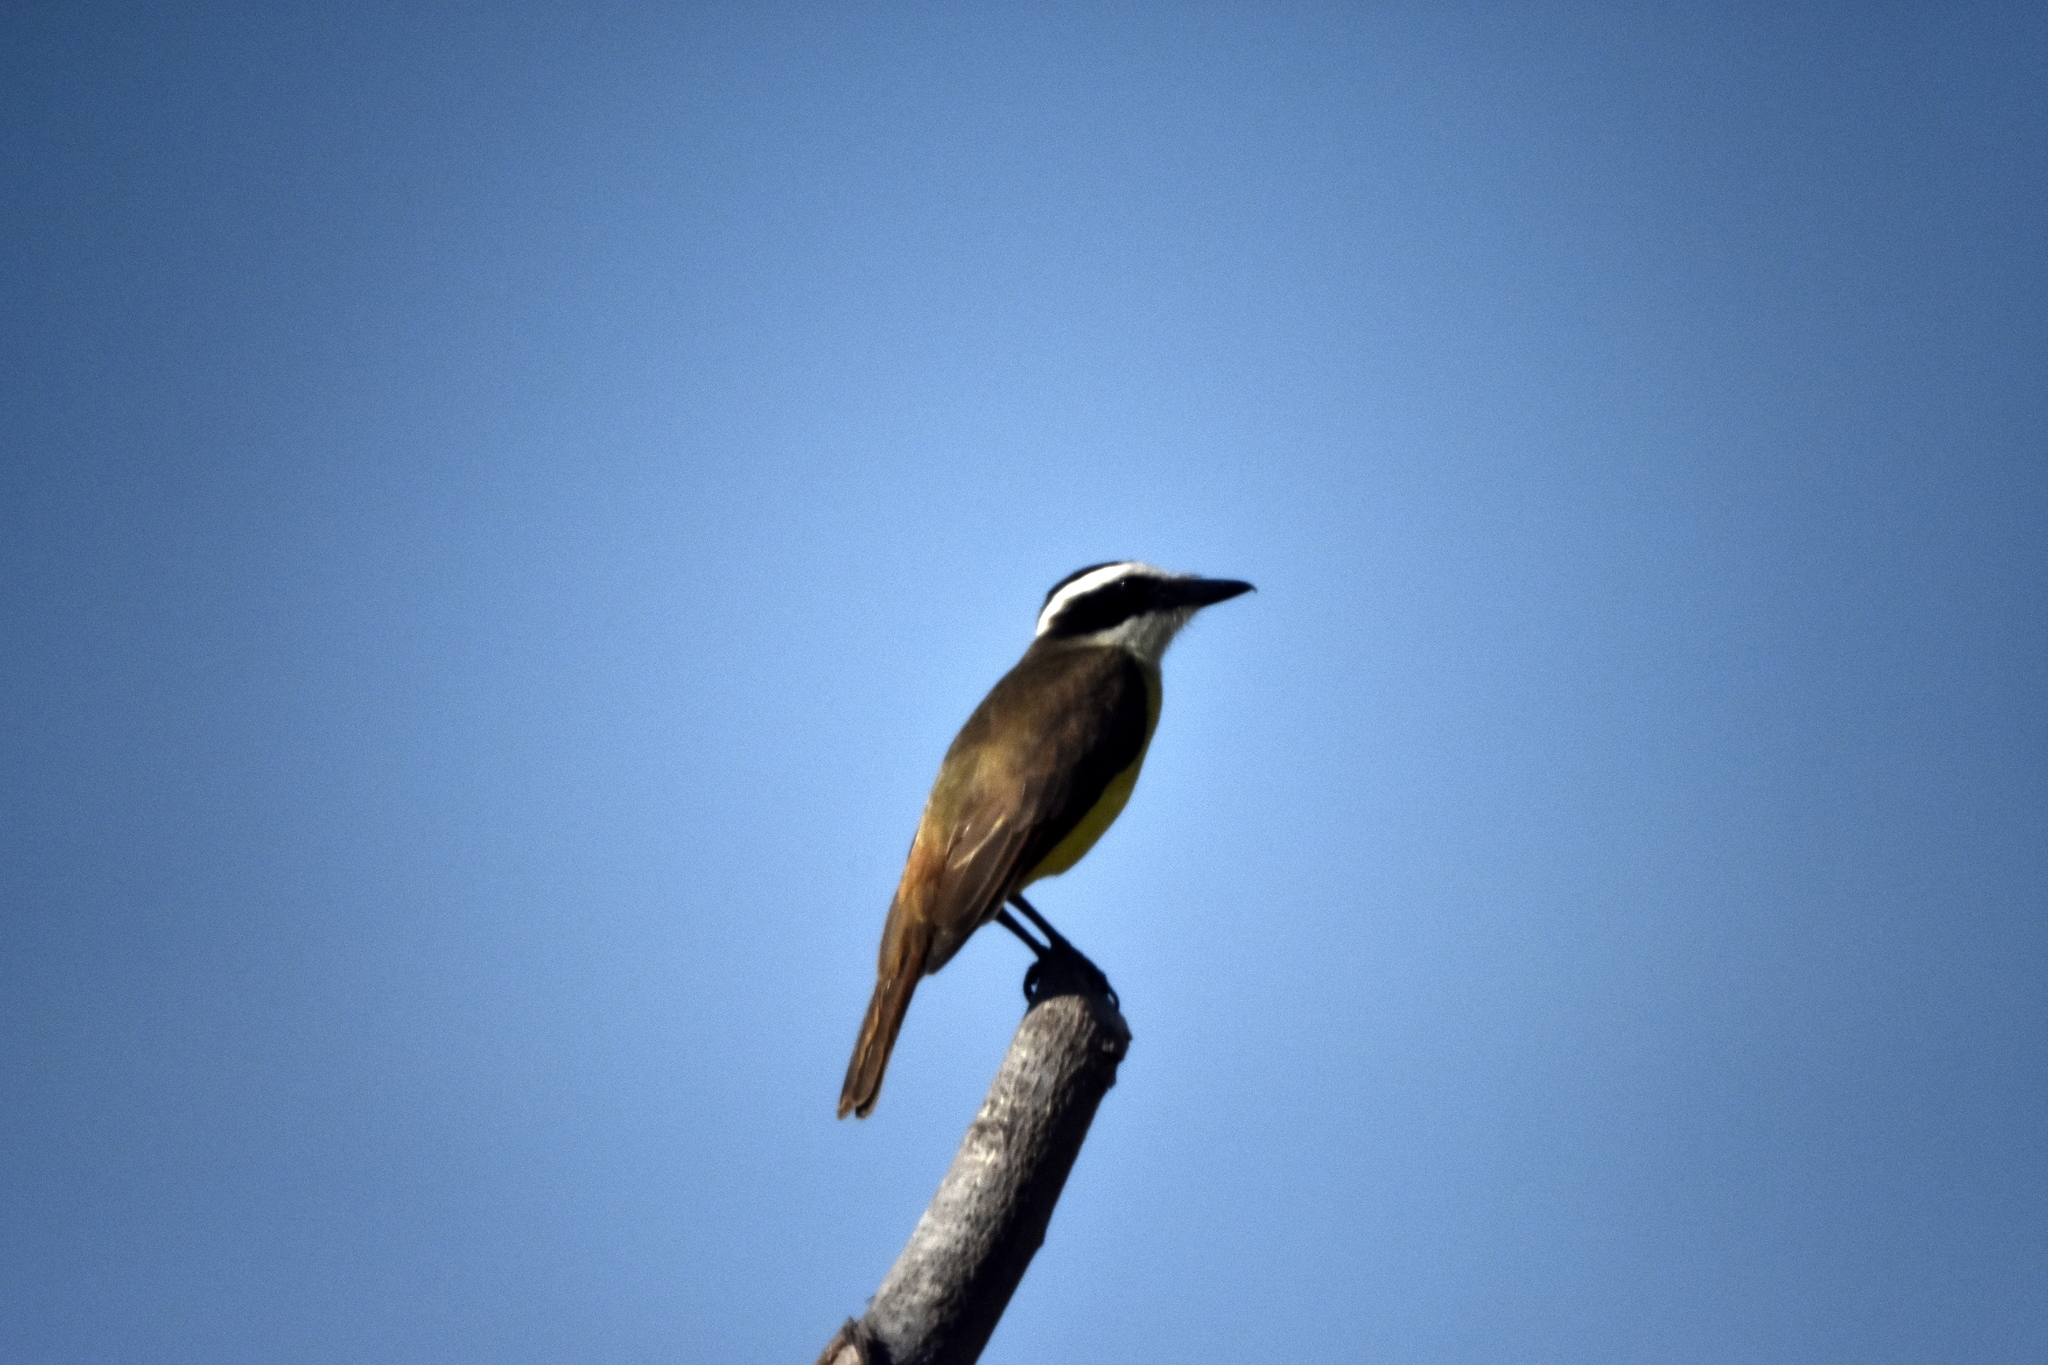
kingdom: Animalia
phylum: Chordata
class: Aves
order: Passeriformes
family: Tyrannidae
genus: Pitangus
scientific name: Pitangus sulphuratus
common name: Great kiskadee
